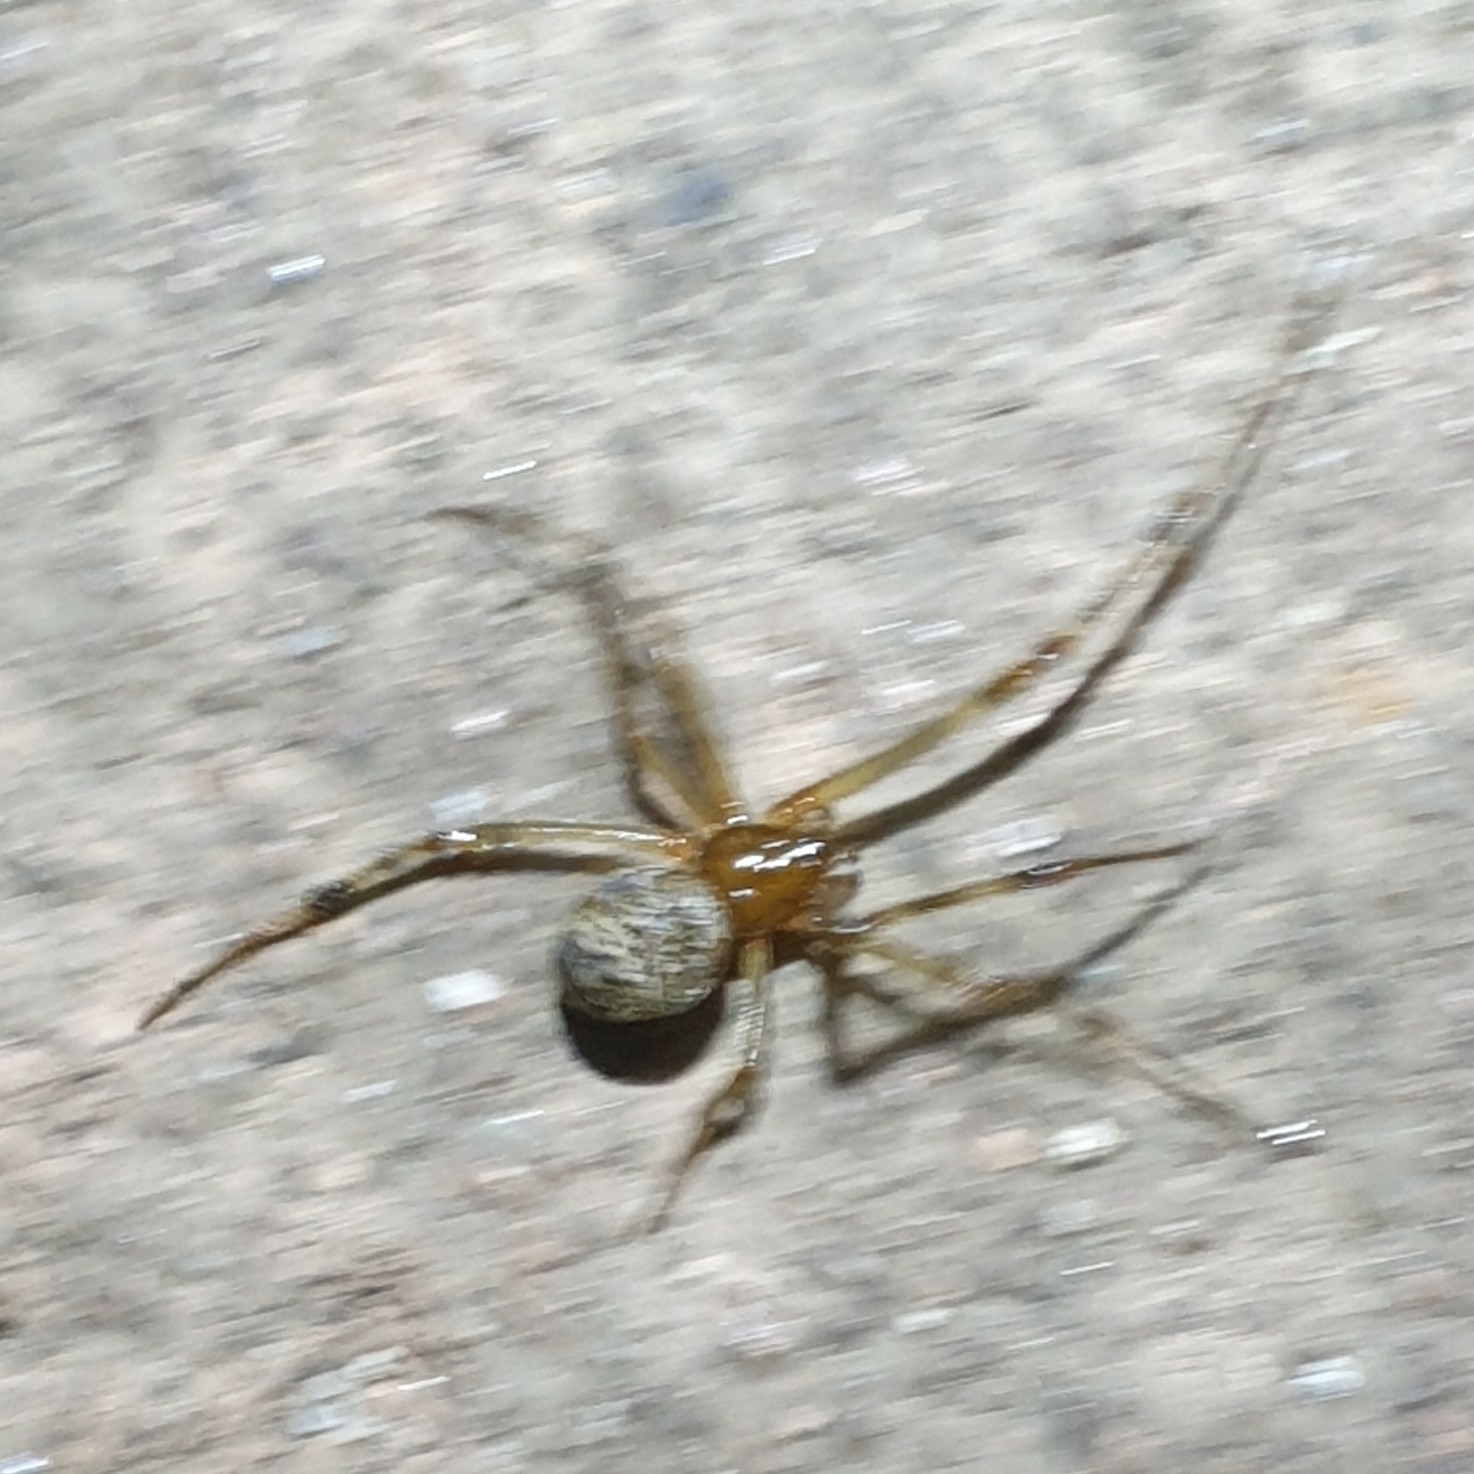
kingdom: Animalia
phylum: Arthropoda
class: Arachnida
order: Araneae
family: Theridiidae
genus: Parasteatoda
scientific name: Parasteatoda tepidariorum
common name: Common house spider
